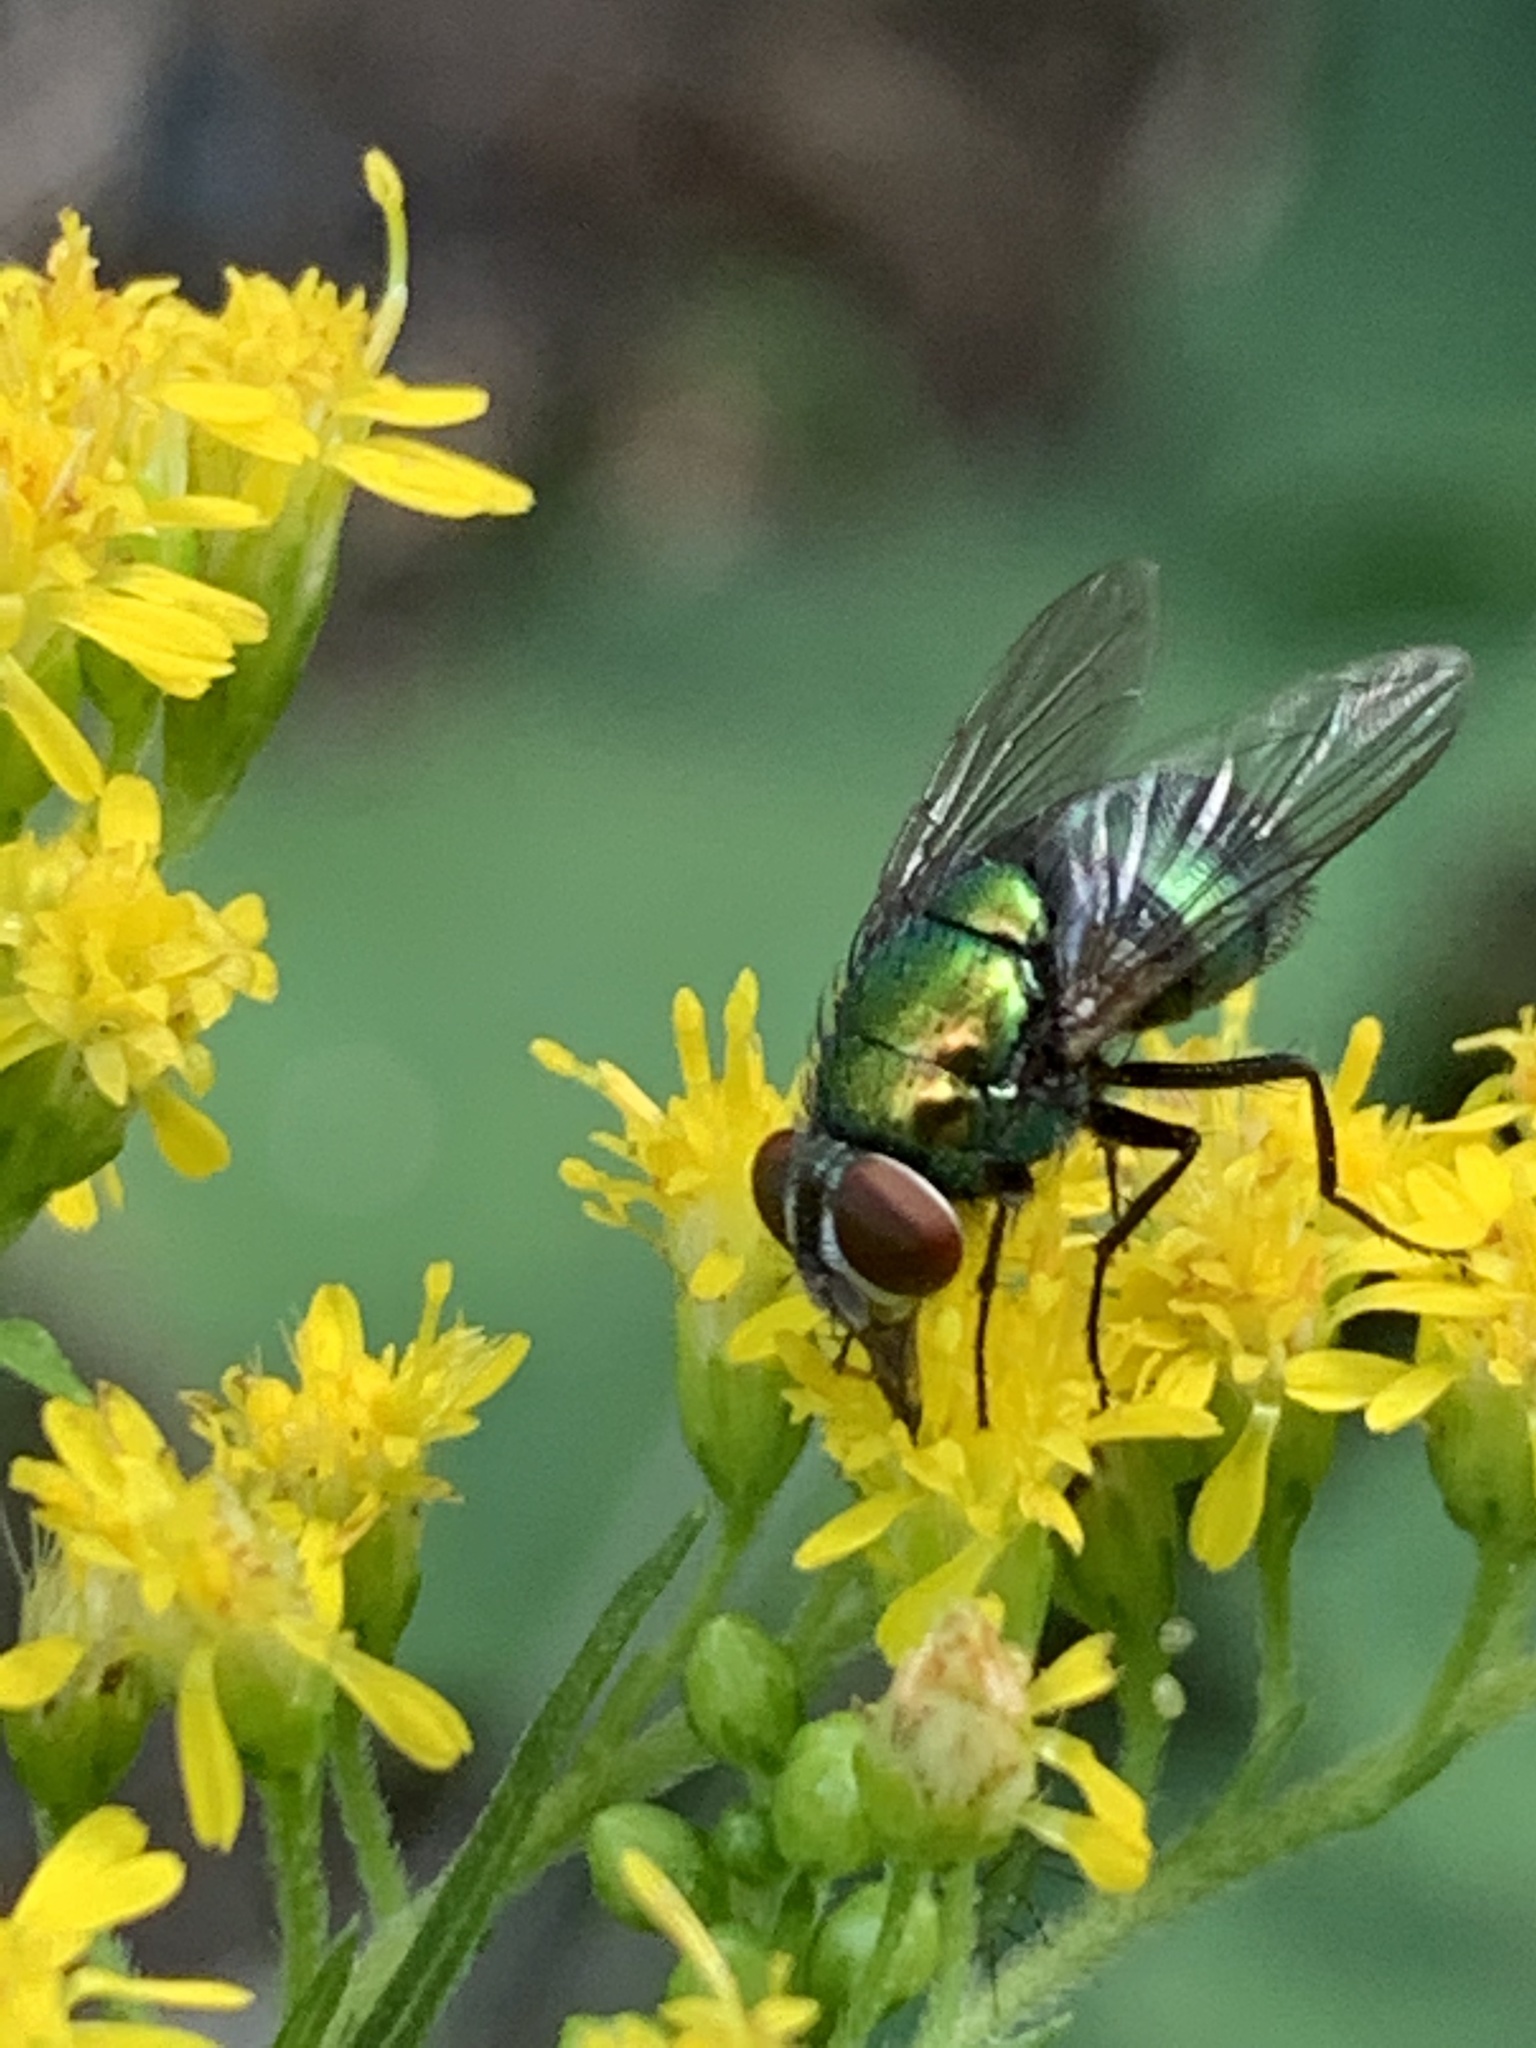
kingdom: Animalia
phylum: Arthropoda
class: Insecta
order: Diptera
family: Calliphoridae
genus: Lucilia
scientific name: Lucilia sericata
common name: Blow fly
